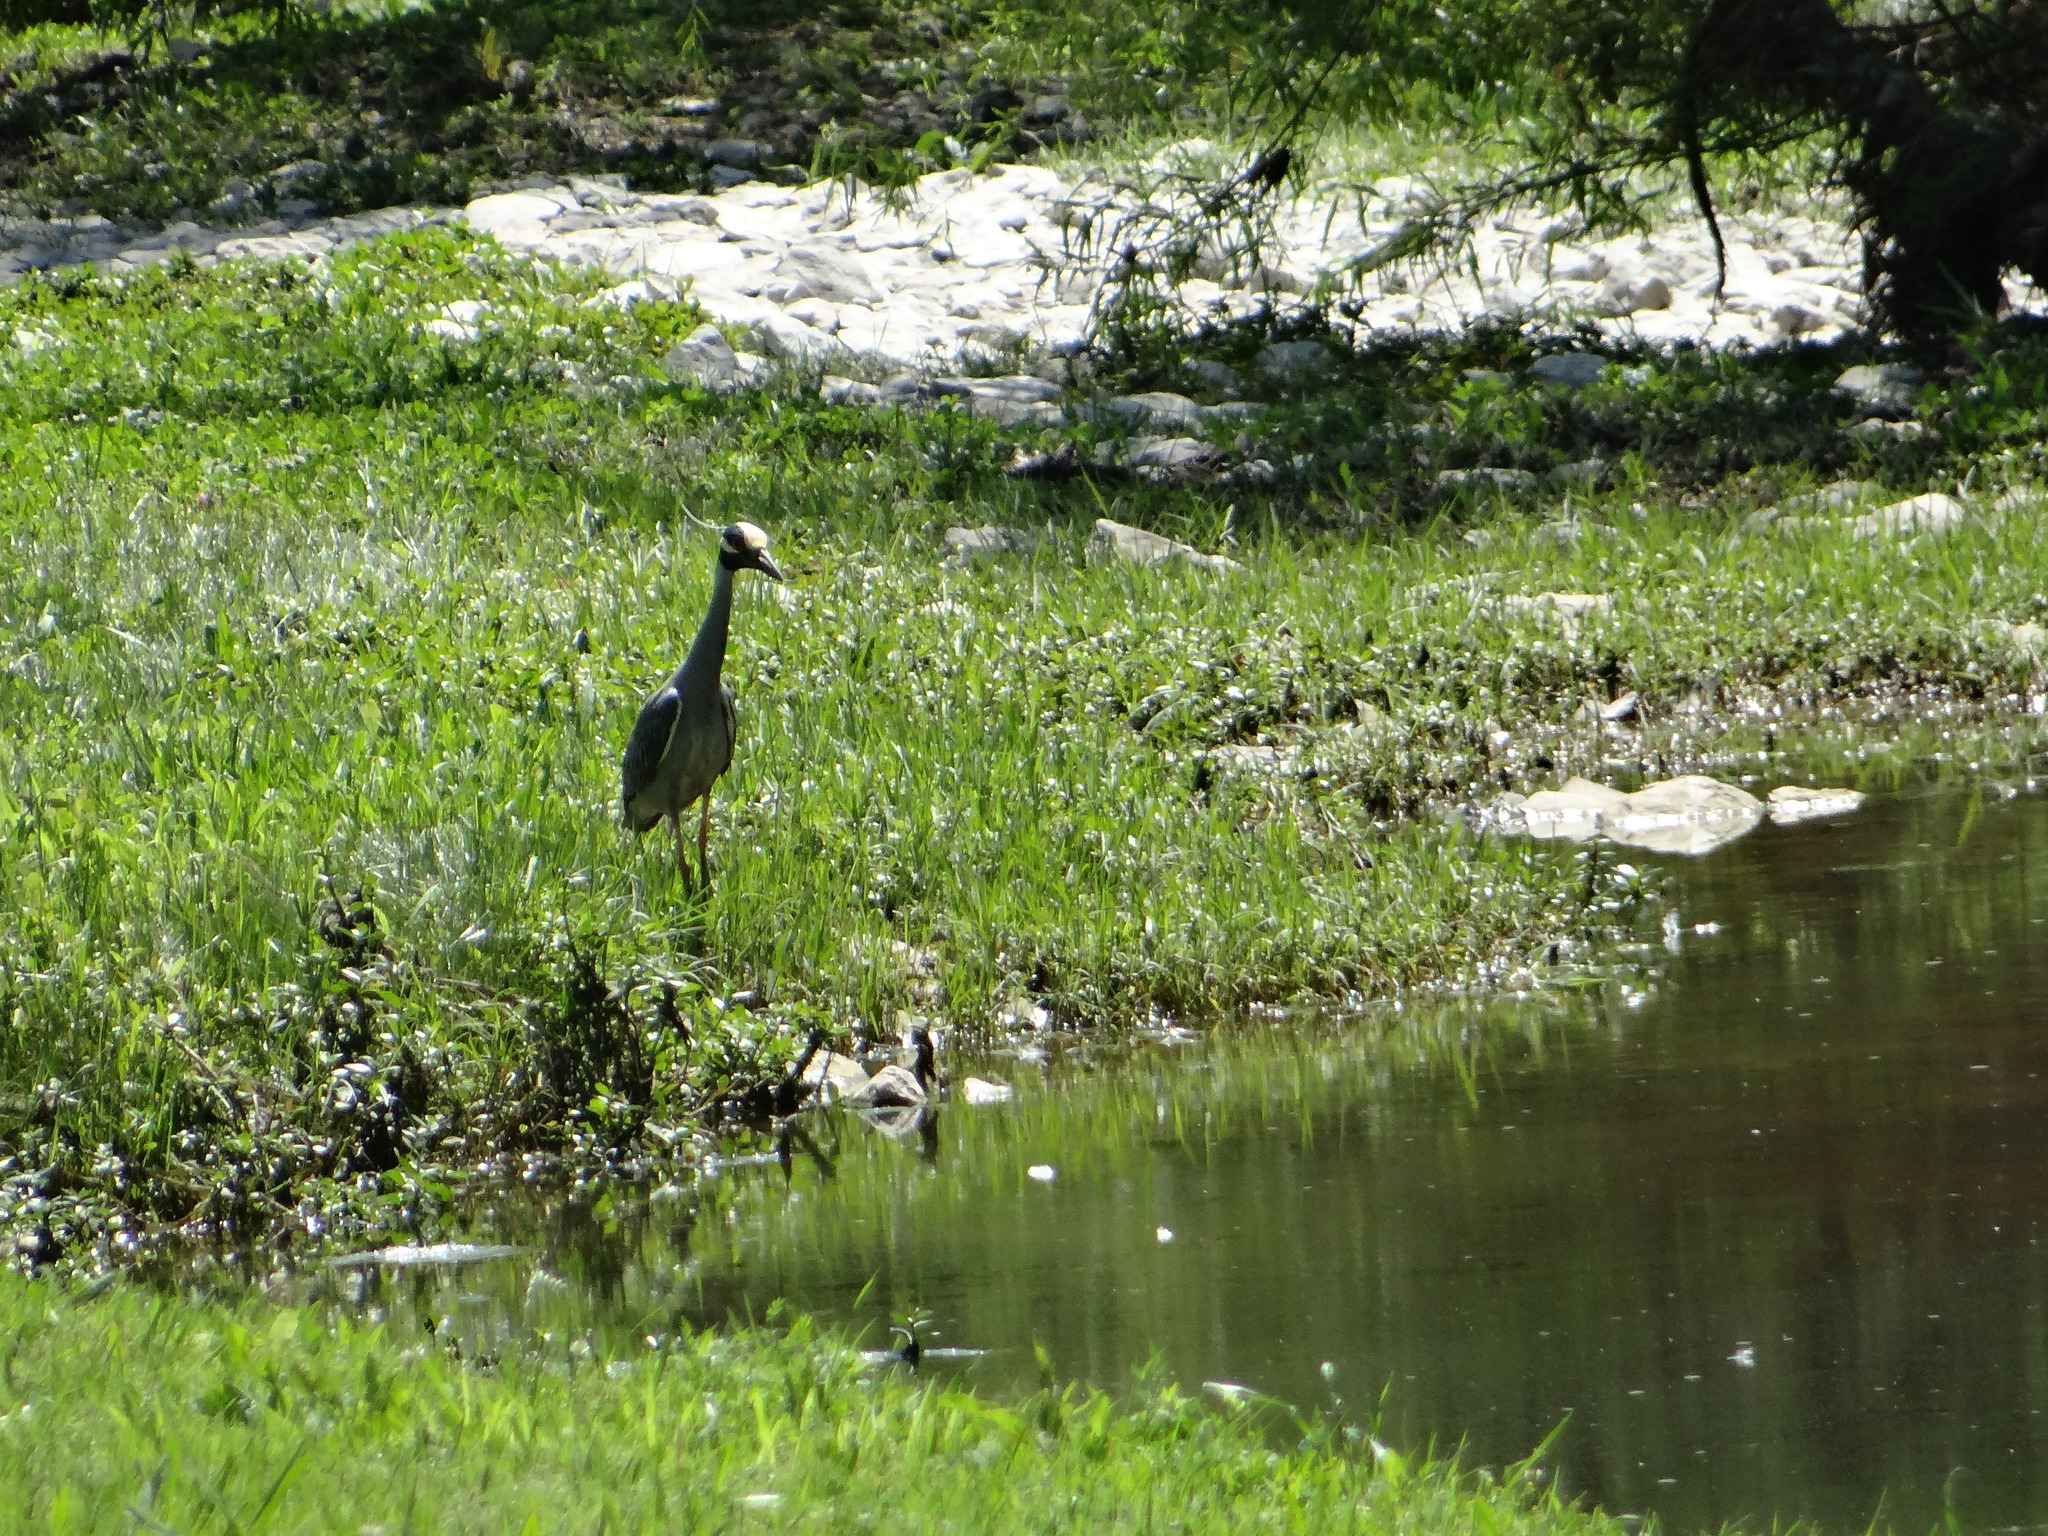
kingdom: Animalia
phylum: Chordata
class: Aves
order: Pelecaniformes
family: Ardeidae
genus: Nyctanassa
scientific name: Nyctanassa violacea
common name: Yellow-crowned night heron
